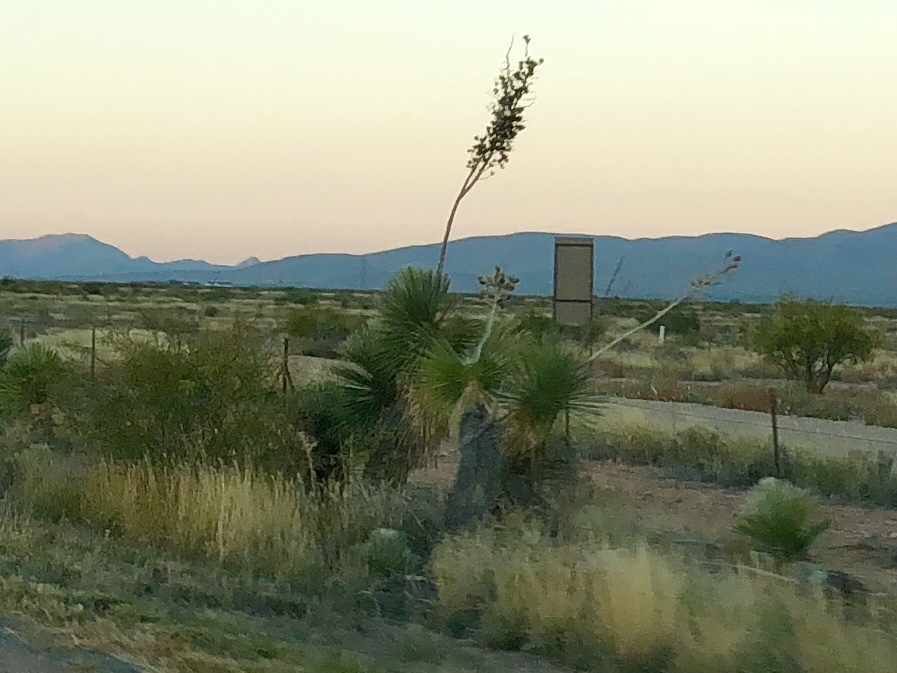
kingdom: Plantae
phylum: Tracheophyta
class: Liliopsida
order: Asparagales
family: Asparagaceae
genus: Yucca
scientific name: Yucca elata
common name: Palmella
